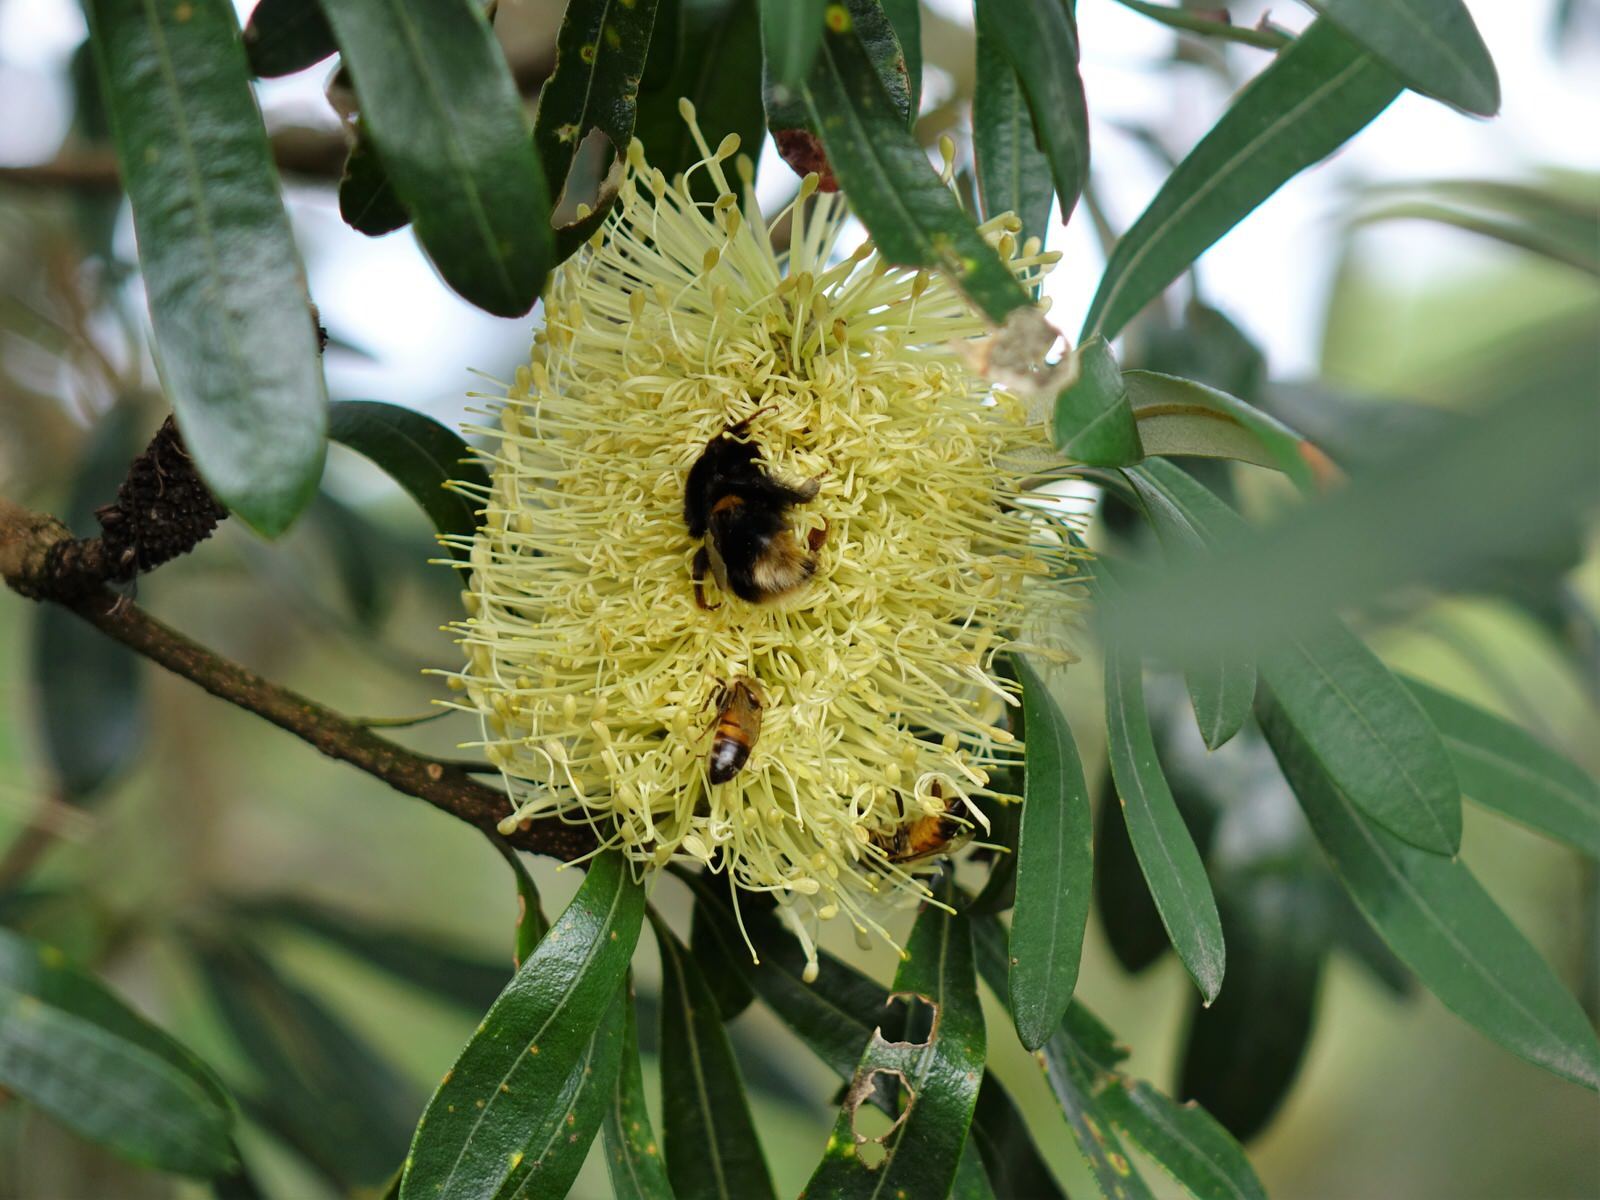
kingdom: Animalia
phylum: Arthropoda
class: Insecta
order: Hymenoptera
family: Apidae
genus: Apis
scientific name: Apis mellifera
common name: Honey bee
